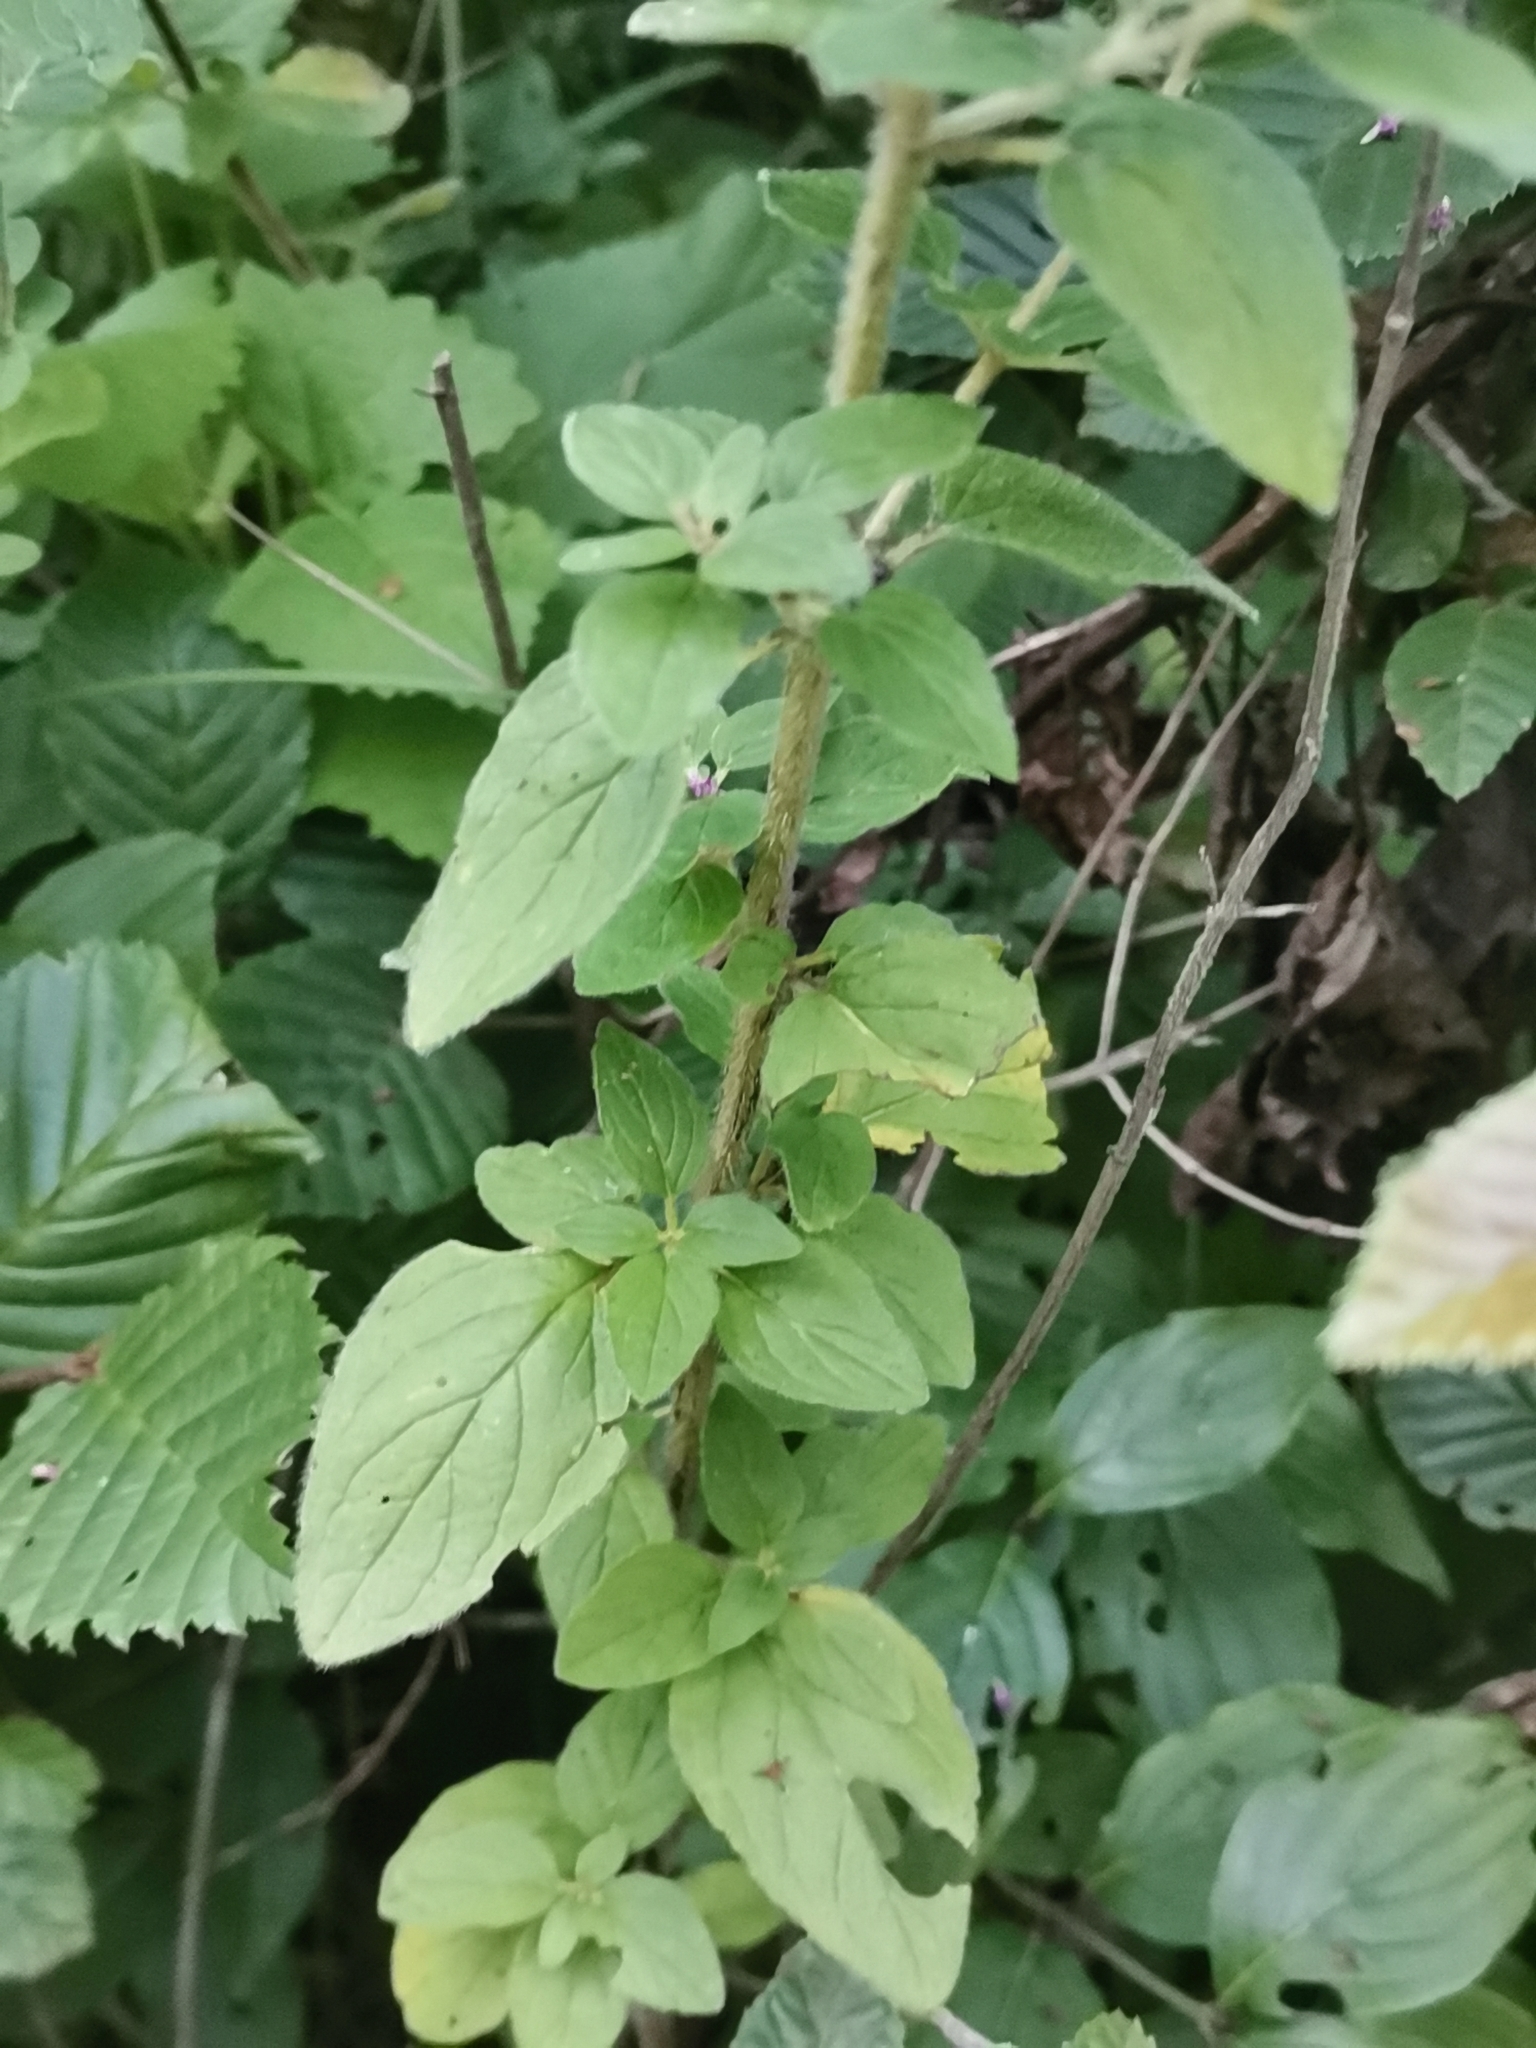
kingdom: Plantae
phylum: Tracheophyta
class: Magnoliopsida
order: Lamiales
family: Lamiaceae
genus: Origanum
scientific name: Origanum vulgare
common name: Wild marjoram
